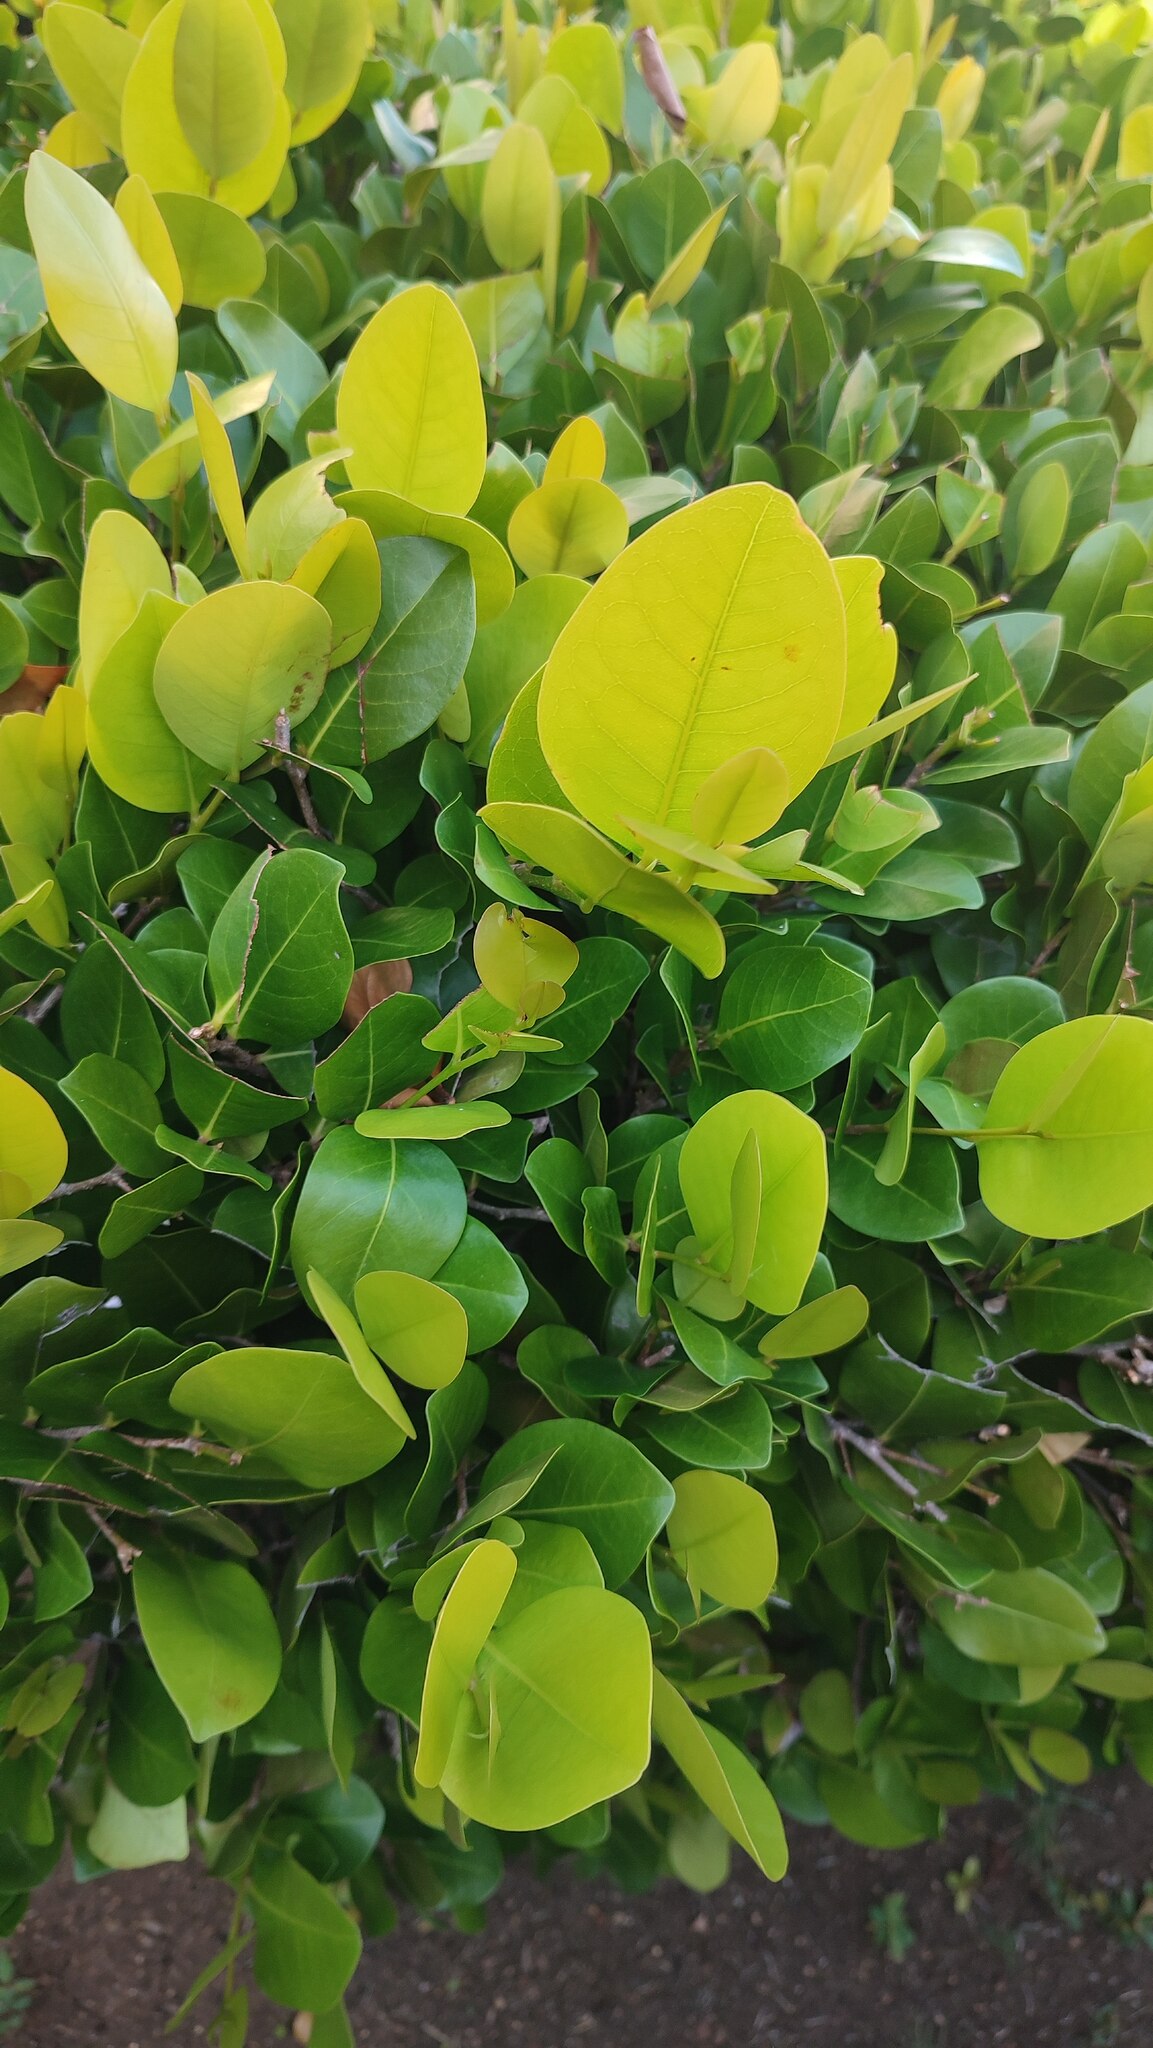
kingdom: Plantae
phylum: Tracheophyta
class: Magnoliopsida
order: Malpighiales
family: Chrysobalanaceae
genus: Chrysobalanus
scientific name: Chrysobalanus icaco
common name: Coco plum
